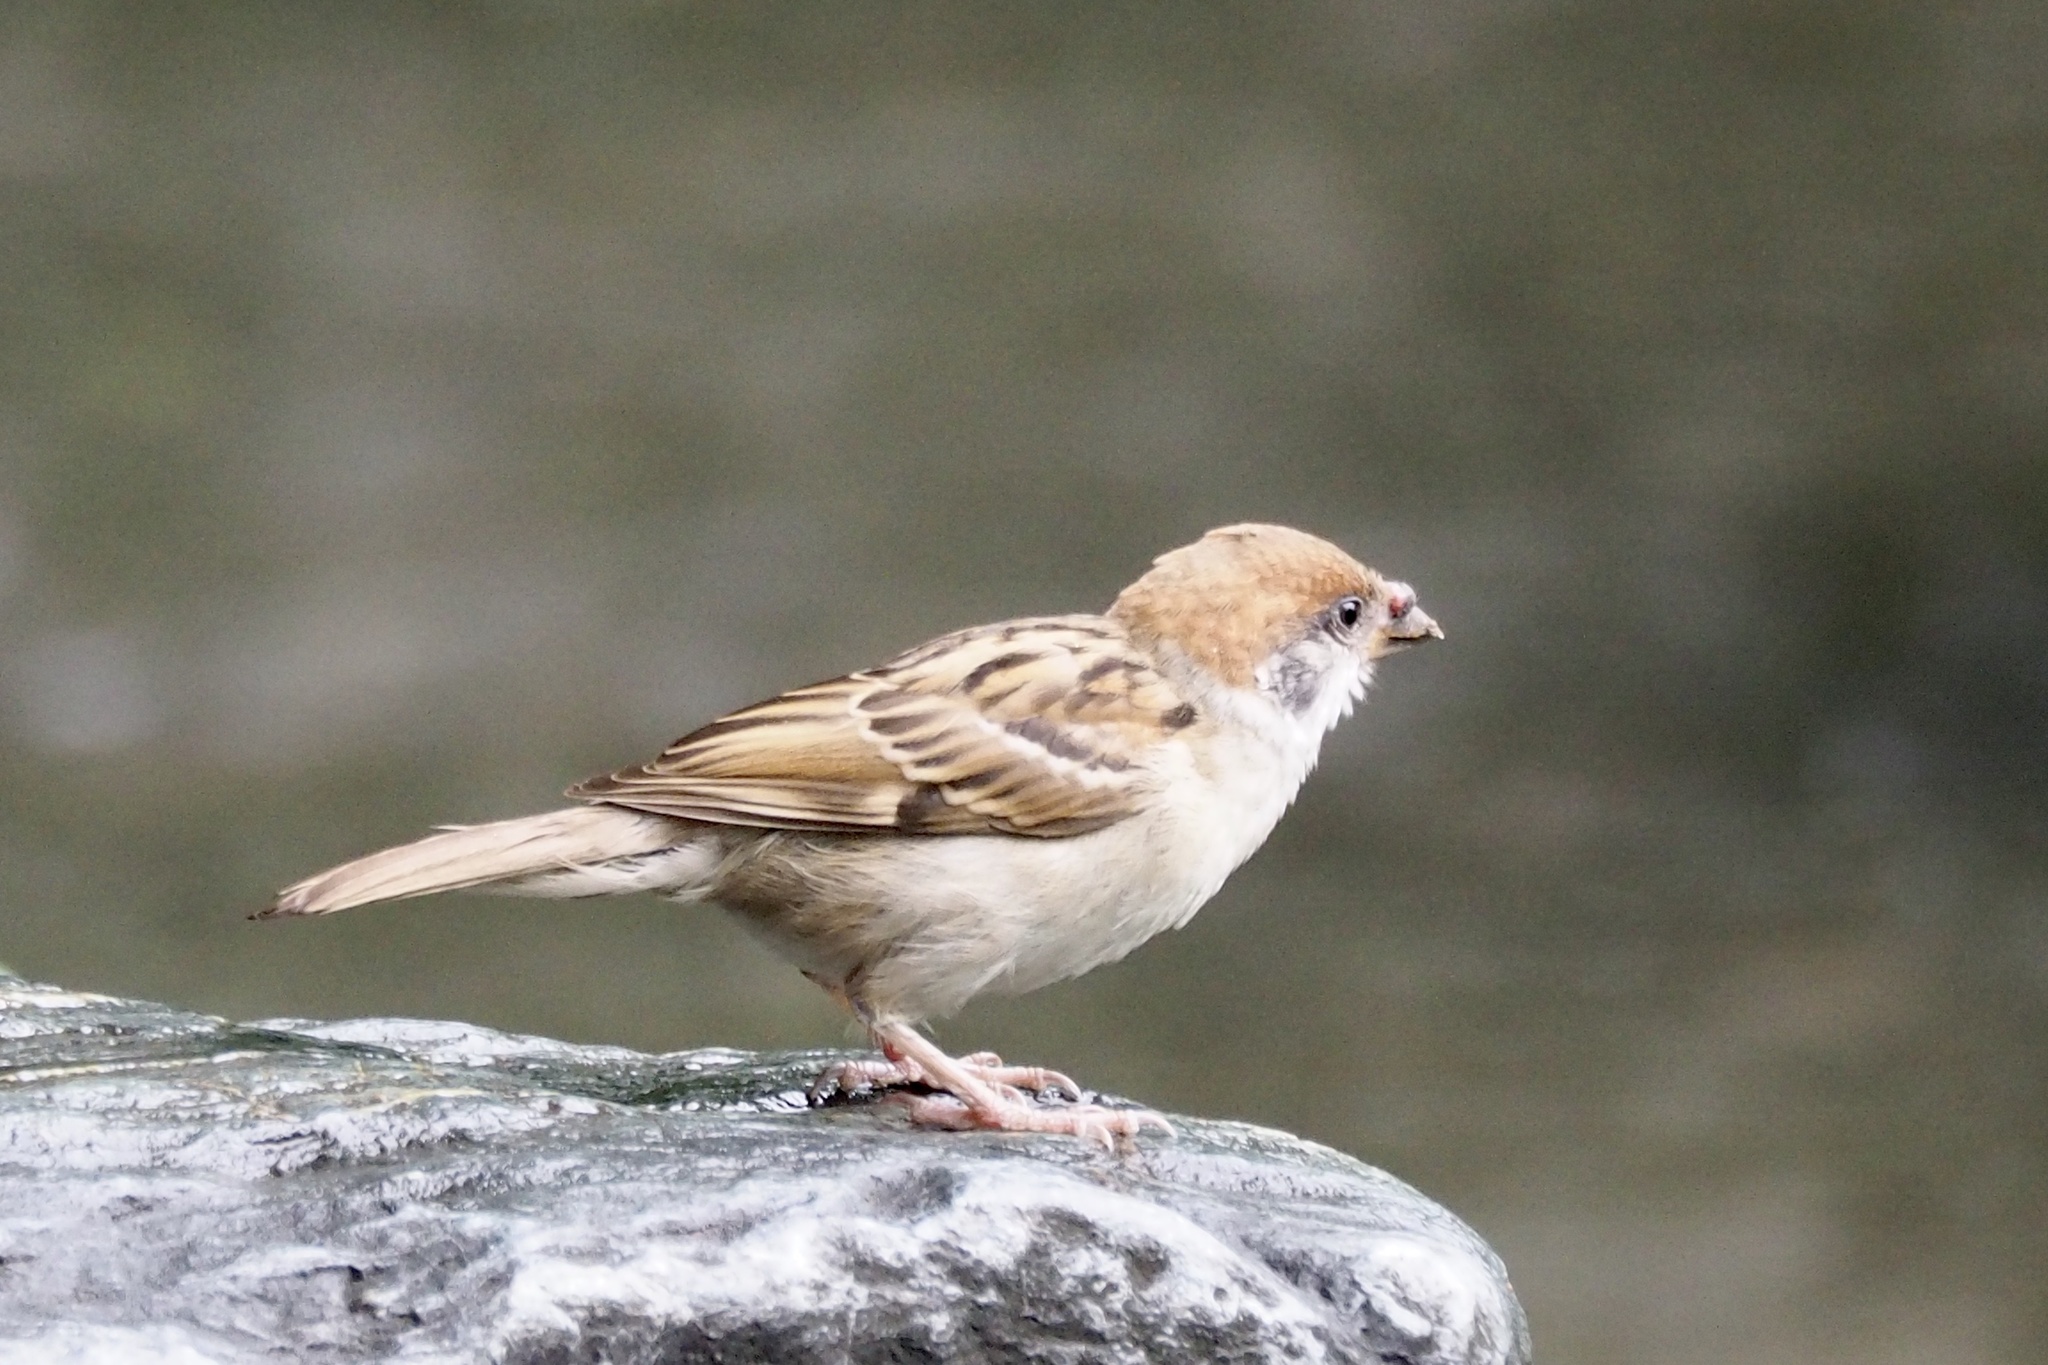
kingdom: Animalia
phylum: Chordata
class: Aves
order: Passeriformes
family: Passeridae
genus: Passer
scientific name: Passer montanus
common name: Eurasian tree sparrow
